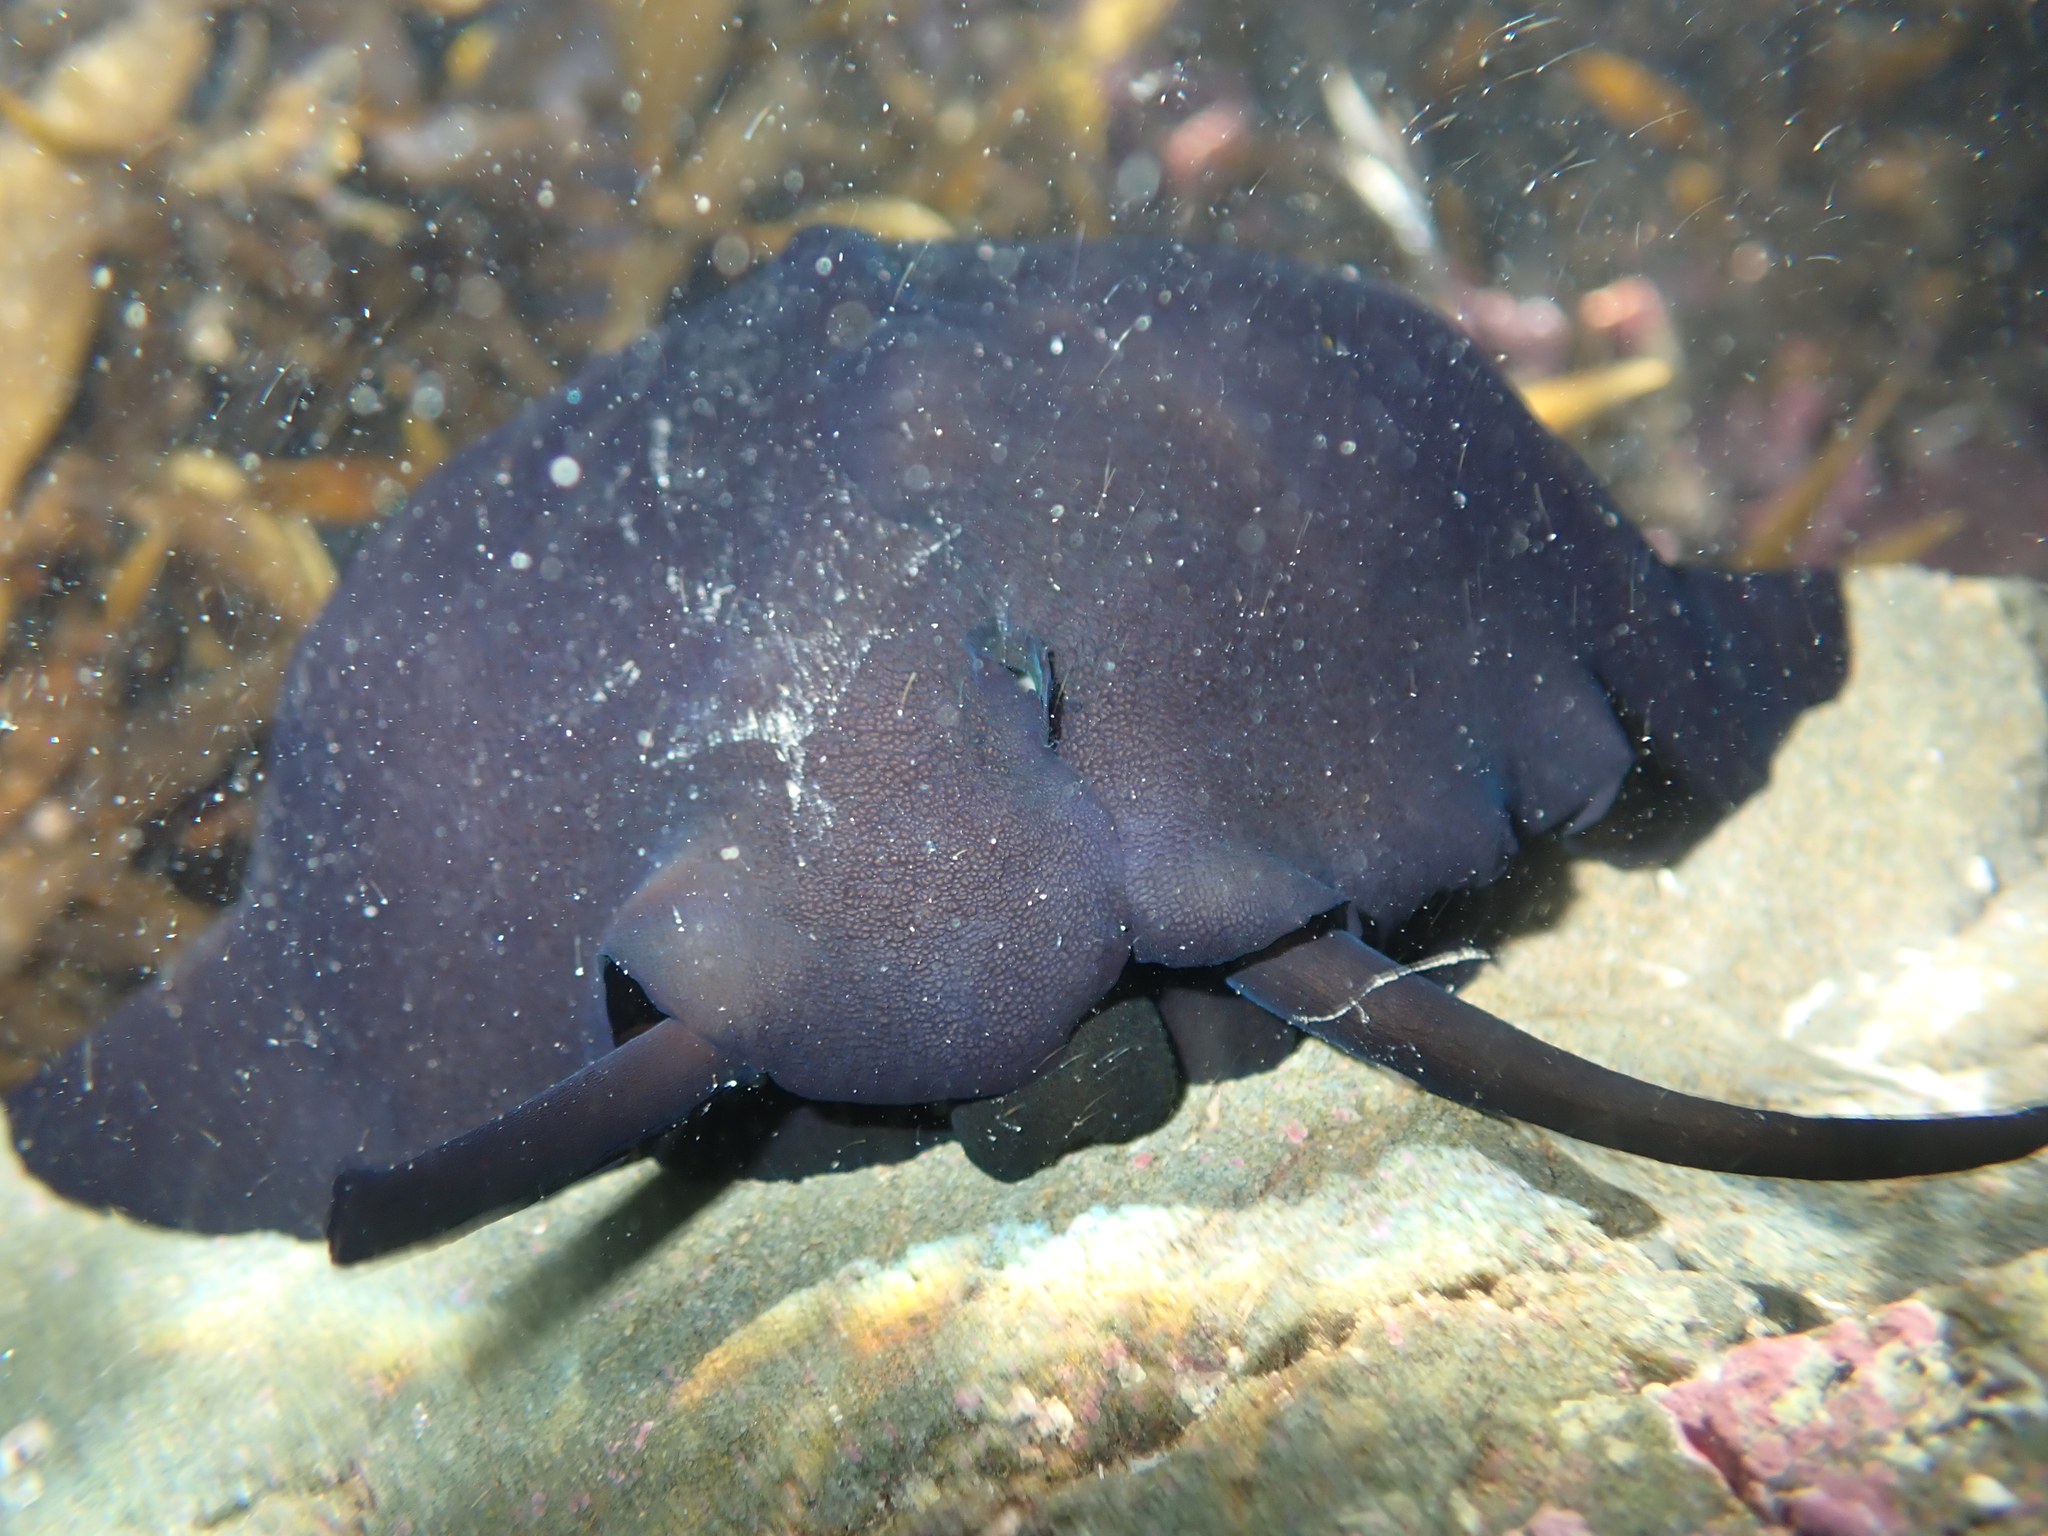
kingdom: Animalia
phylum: Mollusca
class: Gastropoda
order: Lepetellida
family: Fissurellidae
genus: Scutus
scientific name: Scutus breviculus
